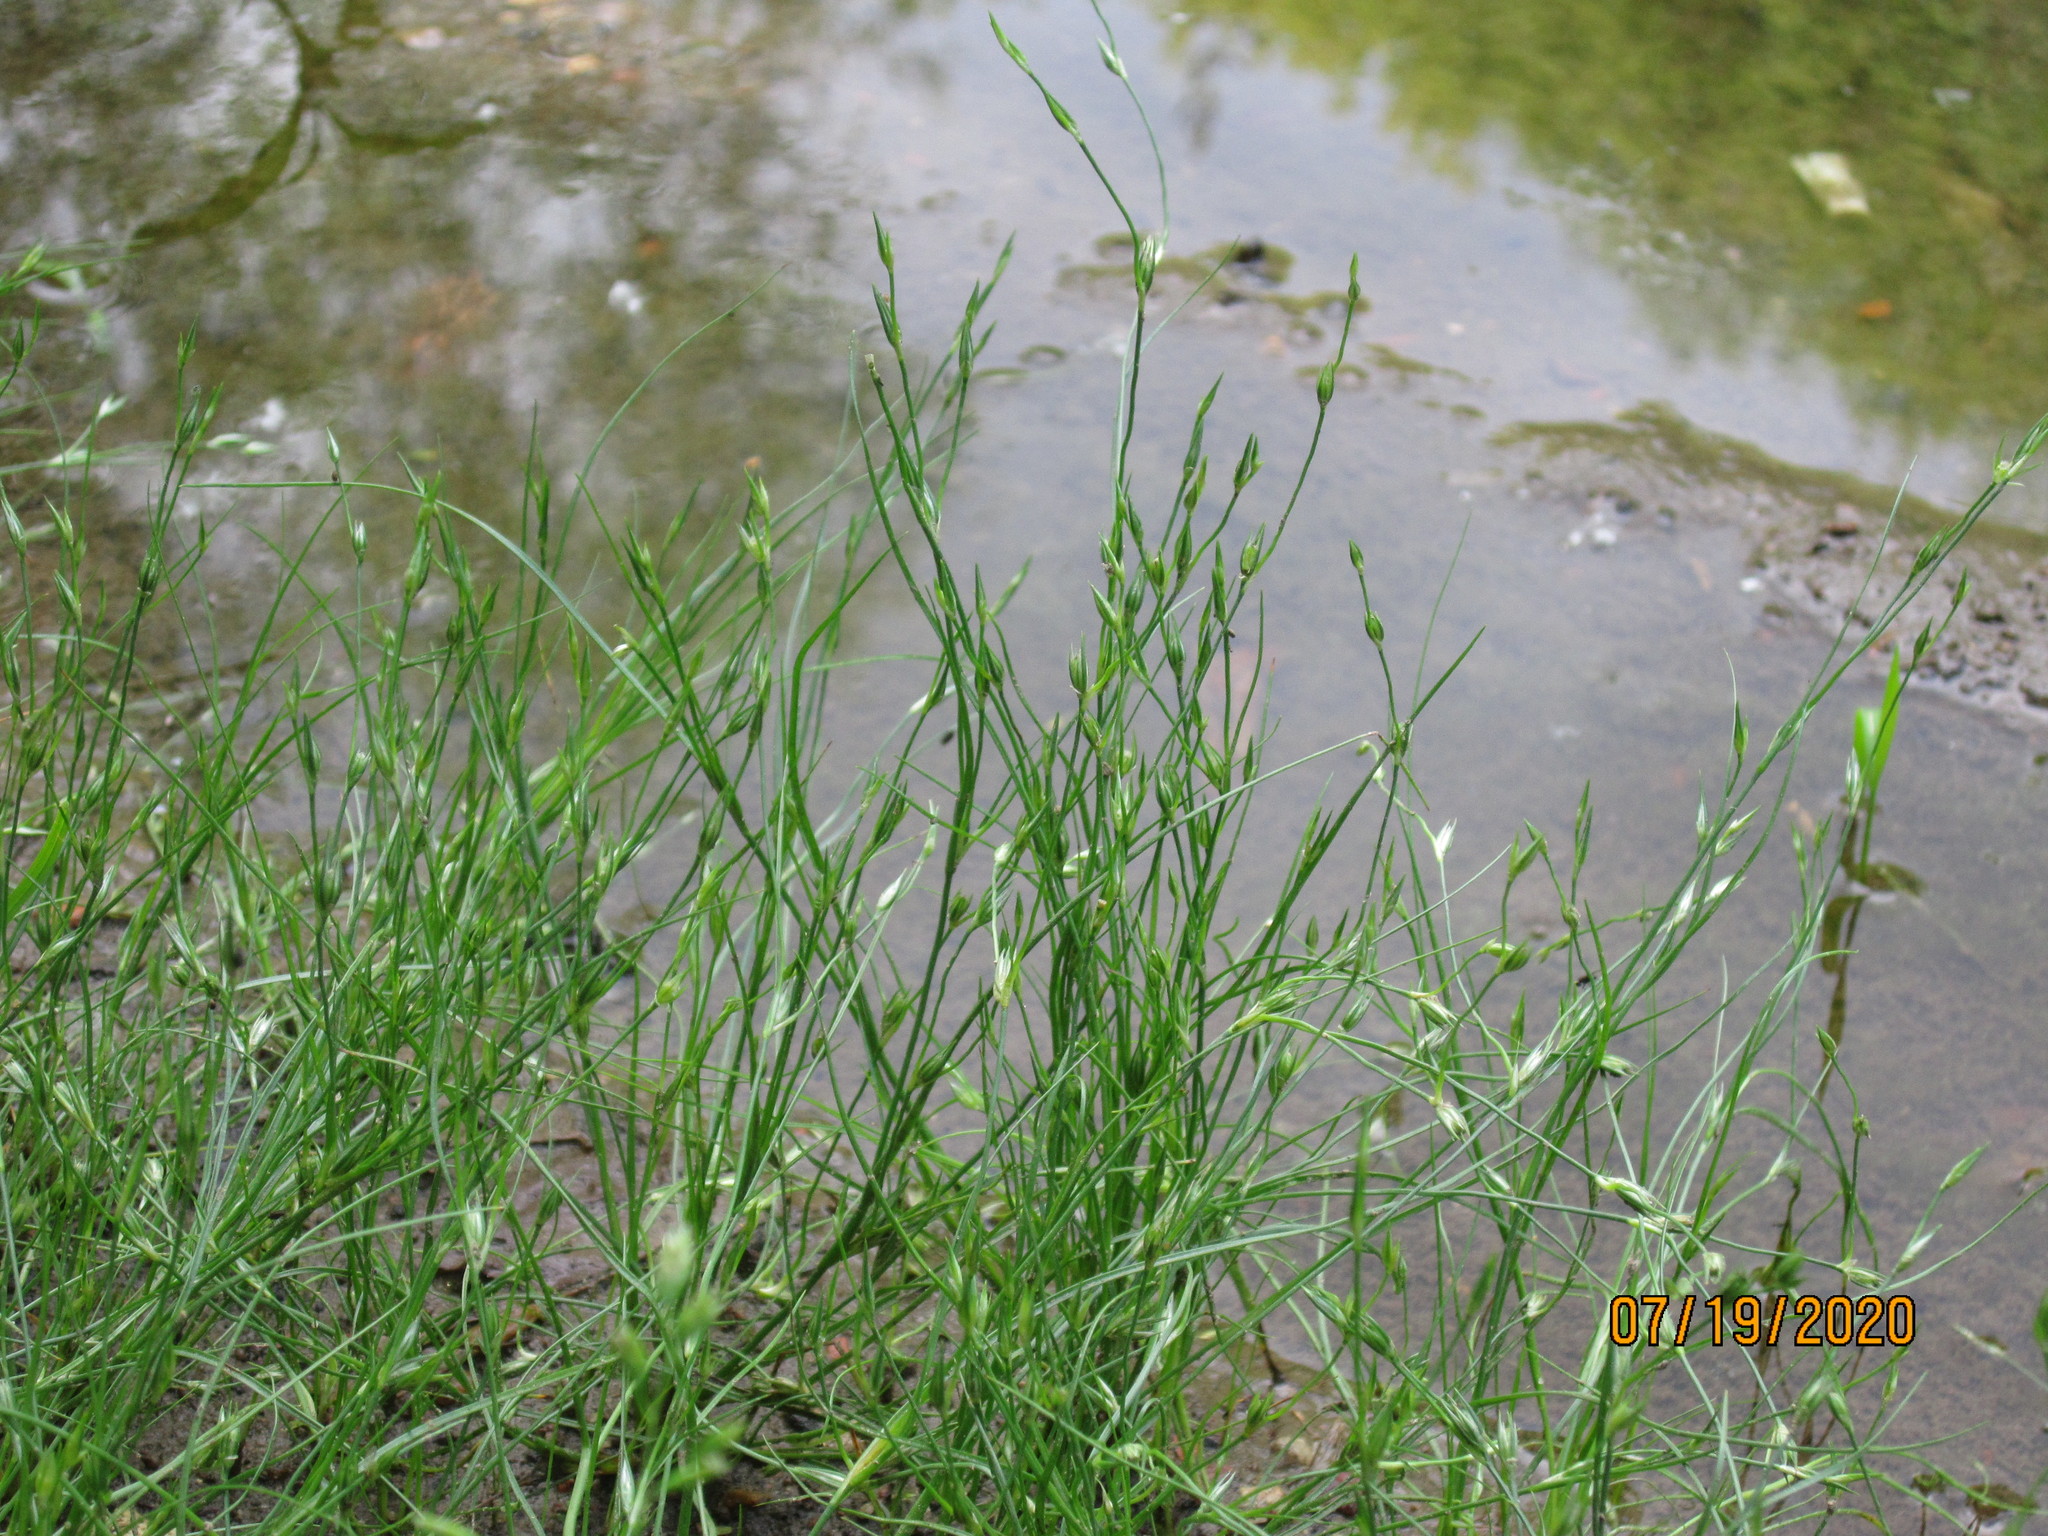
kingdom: Plantae
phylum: Tracheophyta
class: Liliopsida
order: Poales
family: Juncaceae
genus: Juncus
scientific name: Juncus bufonius
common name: Toad rush
